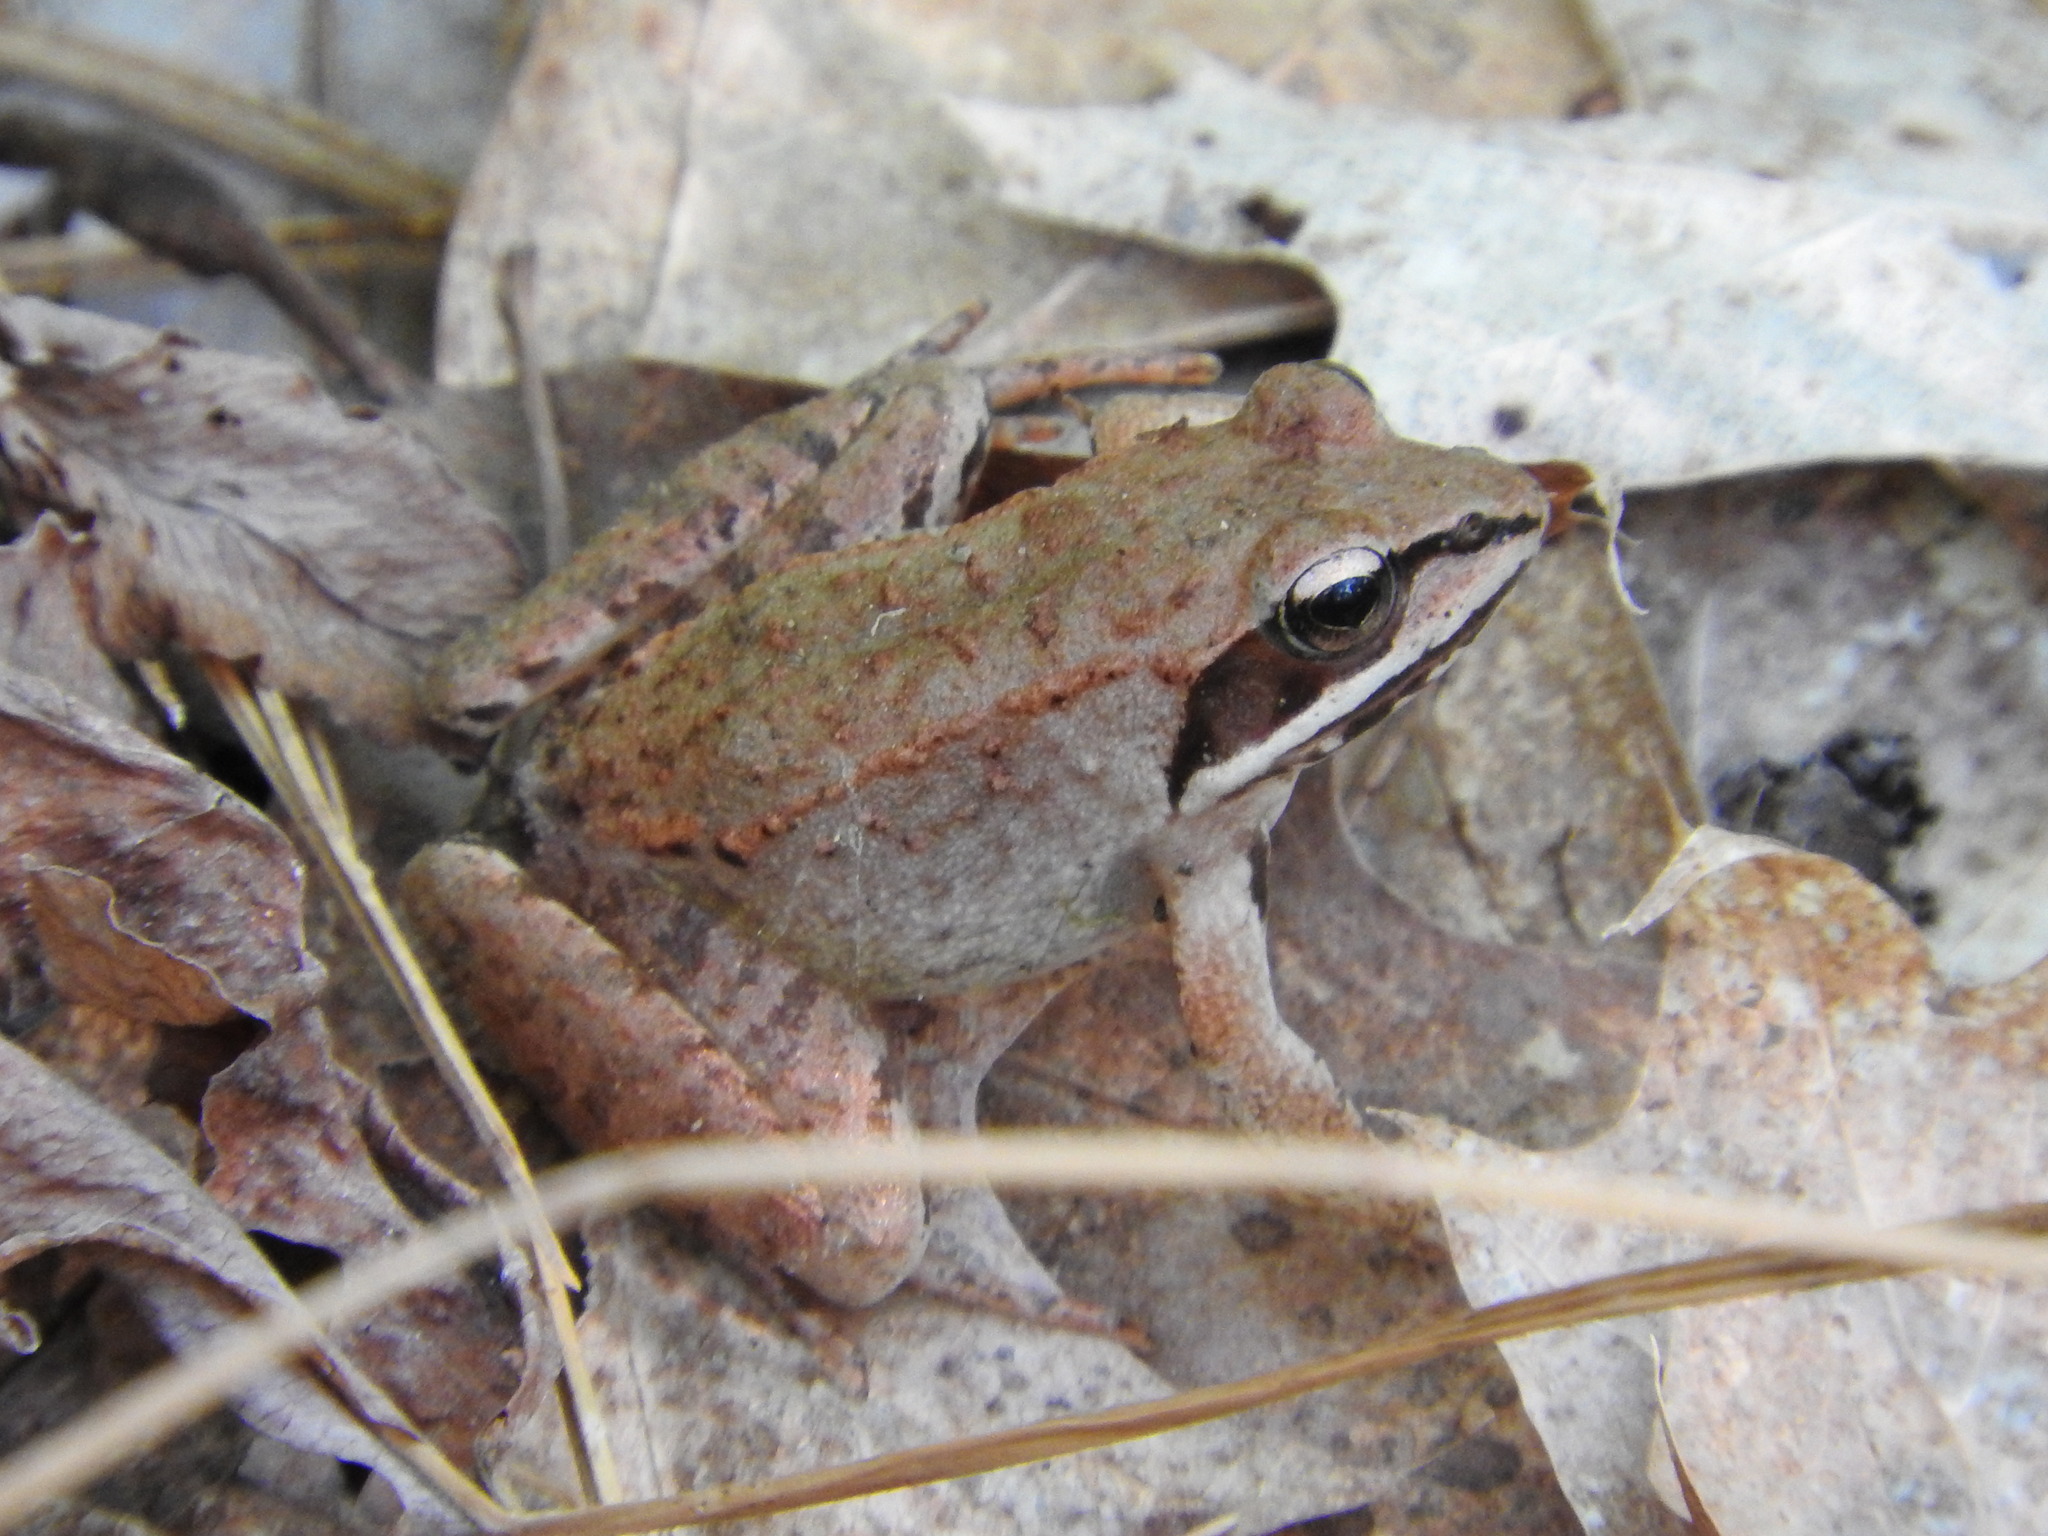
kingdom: Animalia
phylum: Chordata
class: Amphibia
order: Anura
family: Ranidae
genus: Lithobates
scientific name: Lithobates sylvaticus
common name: Wood frog
